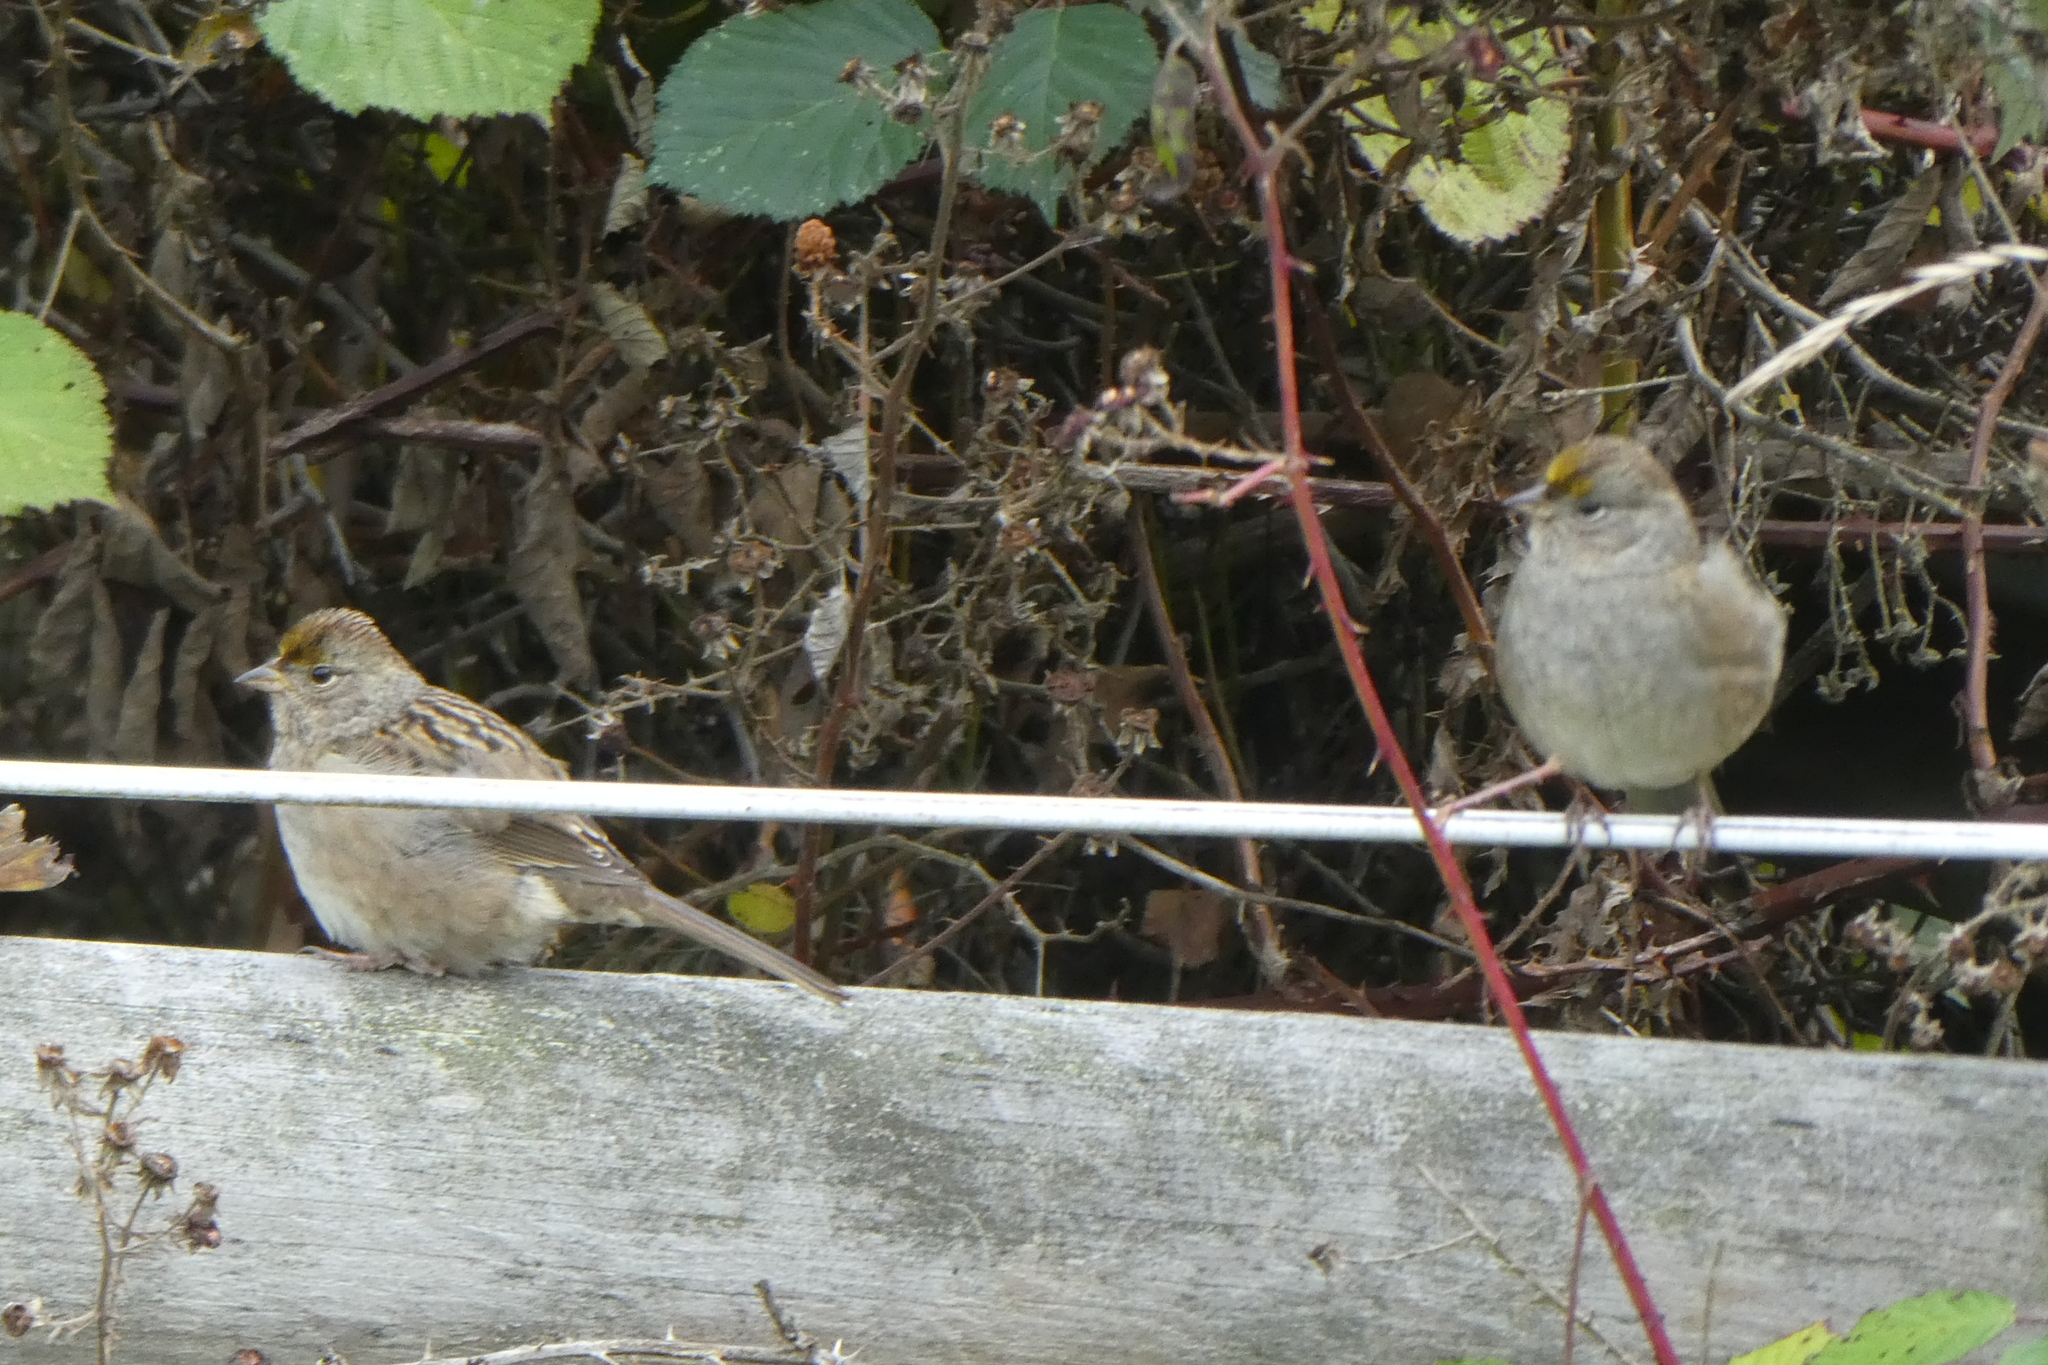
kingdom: Animalia
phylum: Chordata
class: Aves
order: Passeriformes
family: Passerellidae
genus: Zonotrichia
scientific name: Zonotrichia atricapilla
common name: Golden-crowned sparrow
